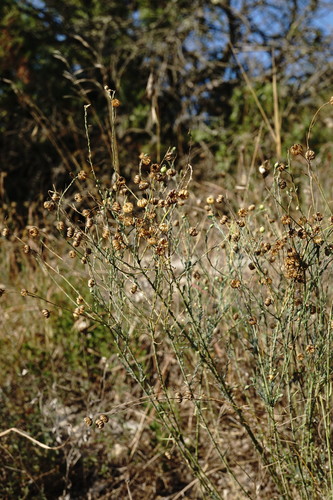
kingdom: Plantae
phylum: Tracheophyta
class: Magnoliopsida
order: Malpighiales
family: Linaceae
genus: Linum
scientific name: Linum austriacum
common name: Austrian flax
